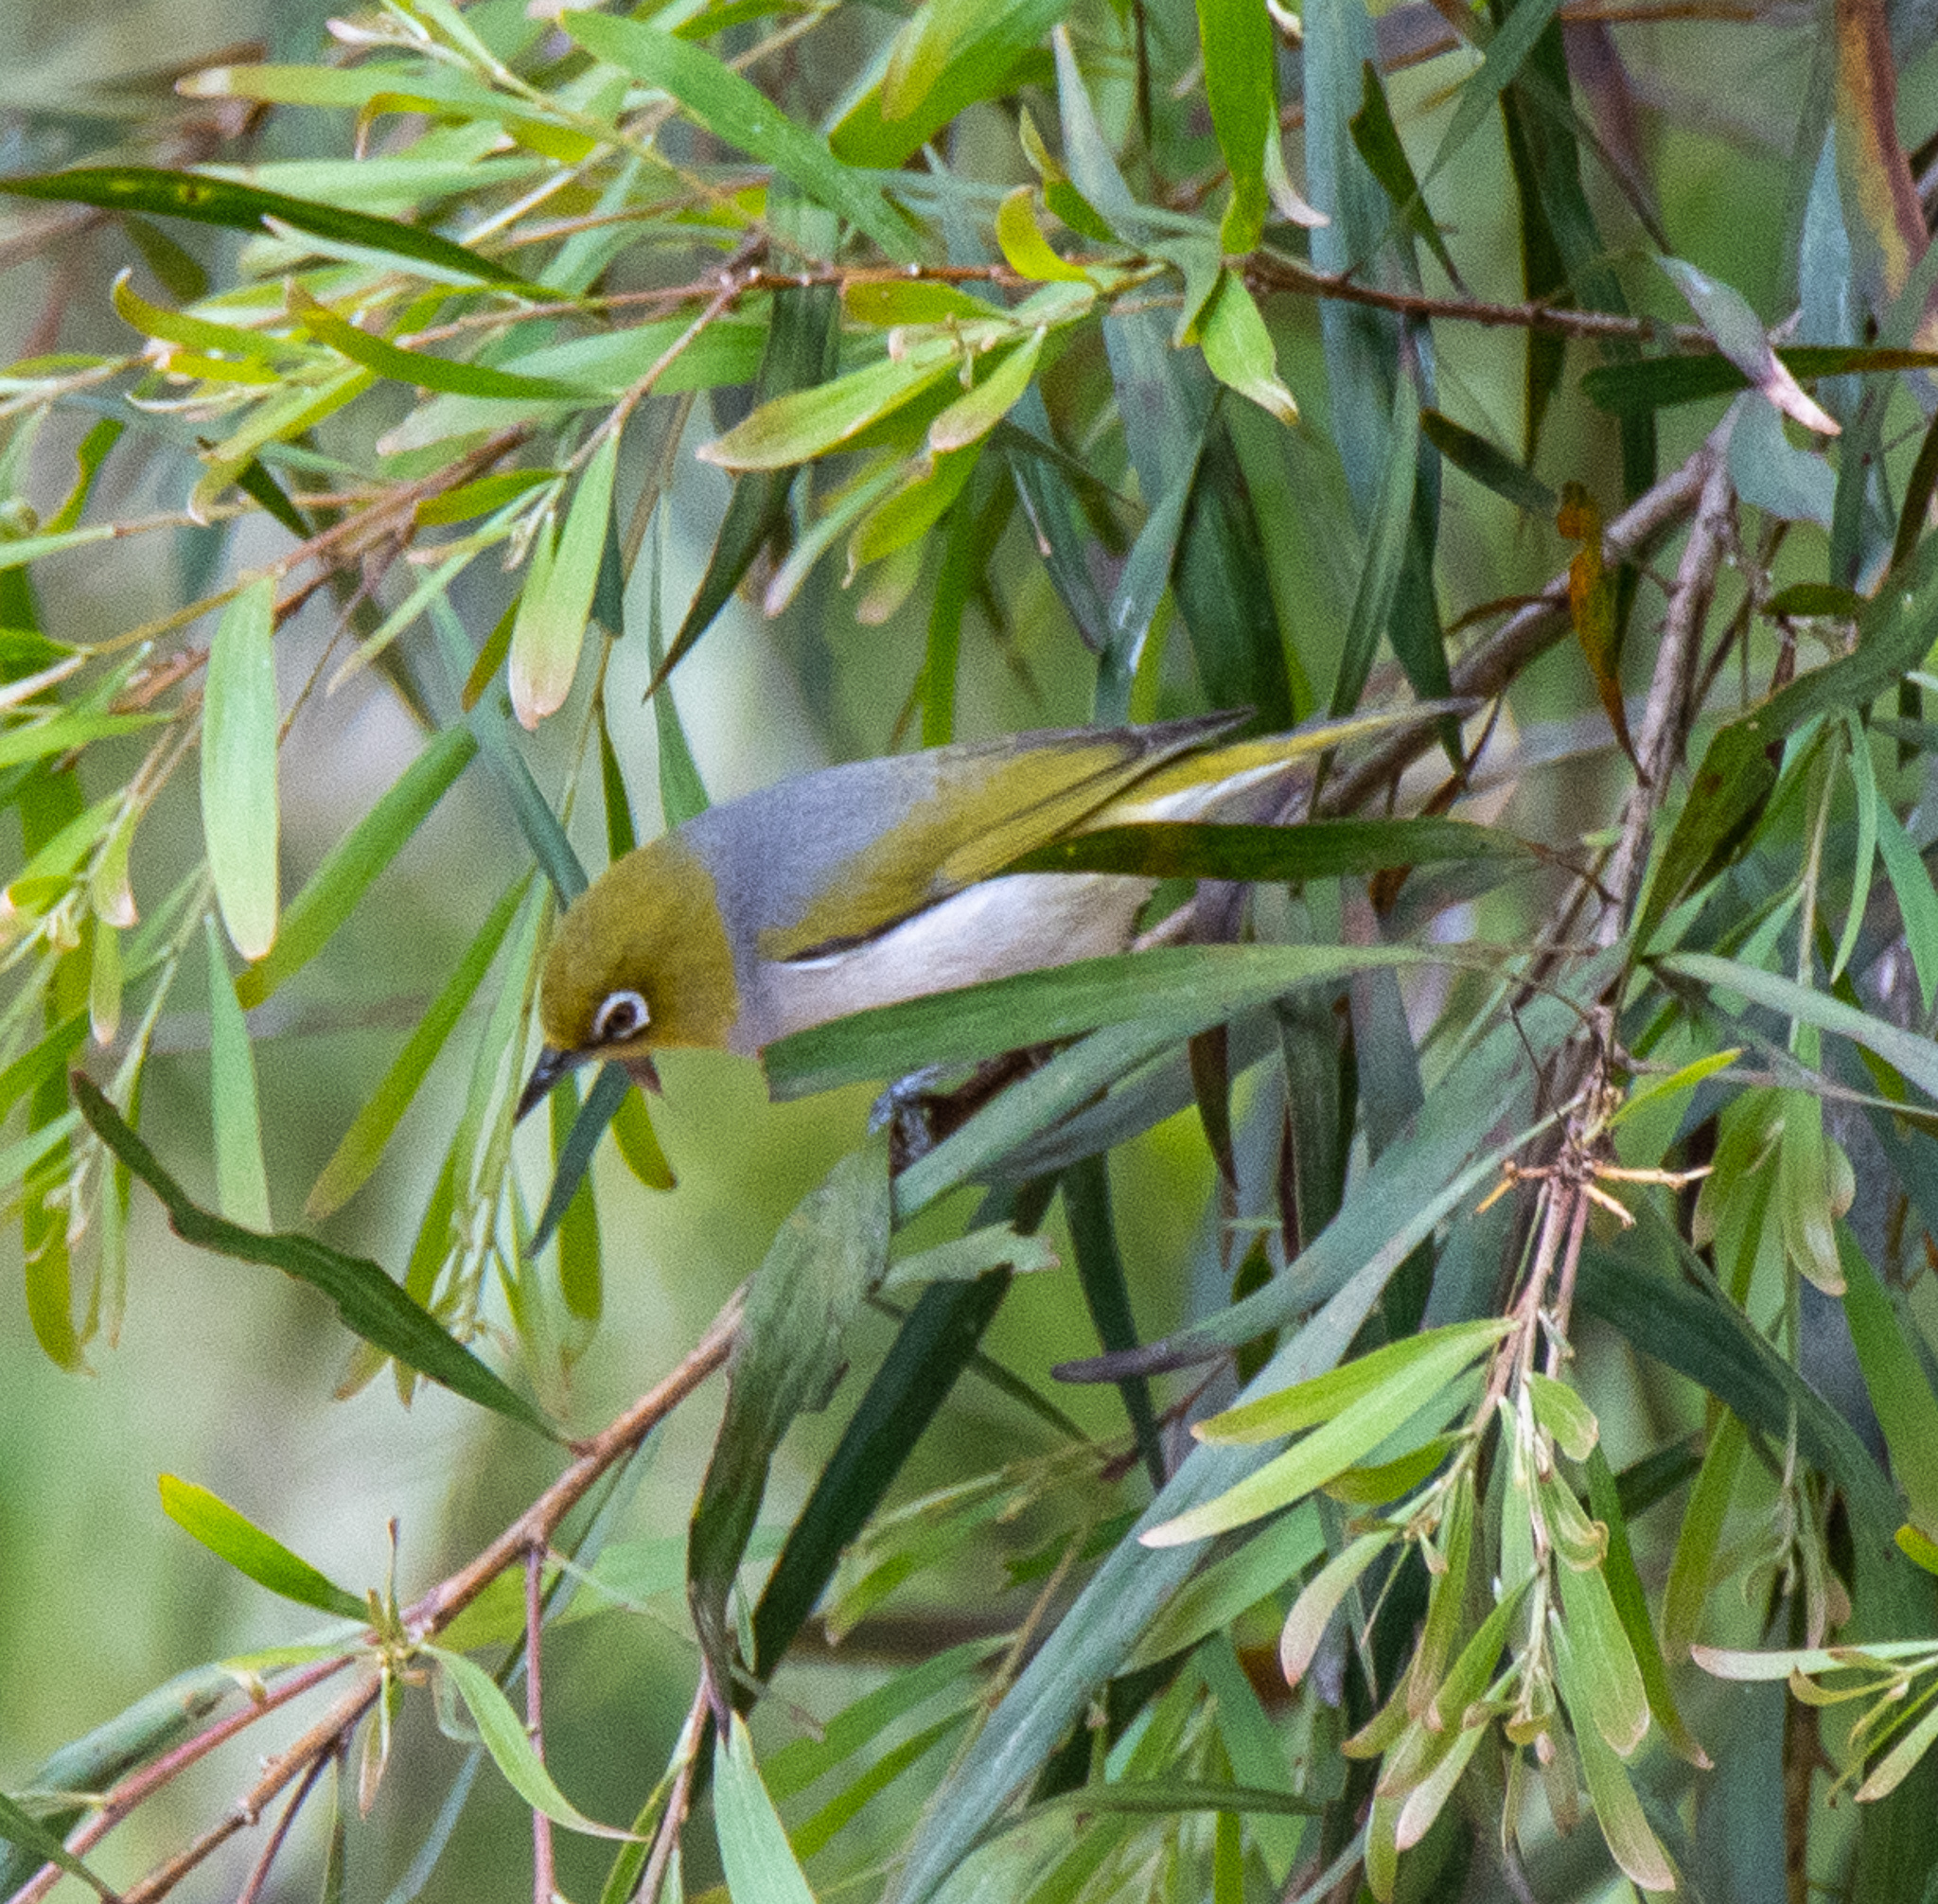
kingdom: Animalia
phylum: Chordata
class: Aves
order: Passeriformes
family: Zosteropidae
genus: Zosterops
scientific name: Zosterops lateralis
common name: Silvereye
